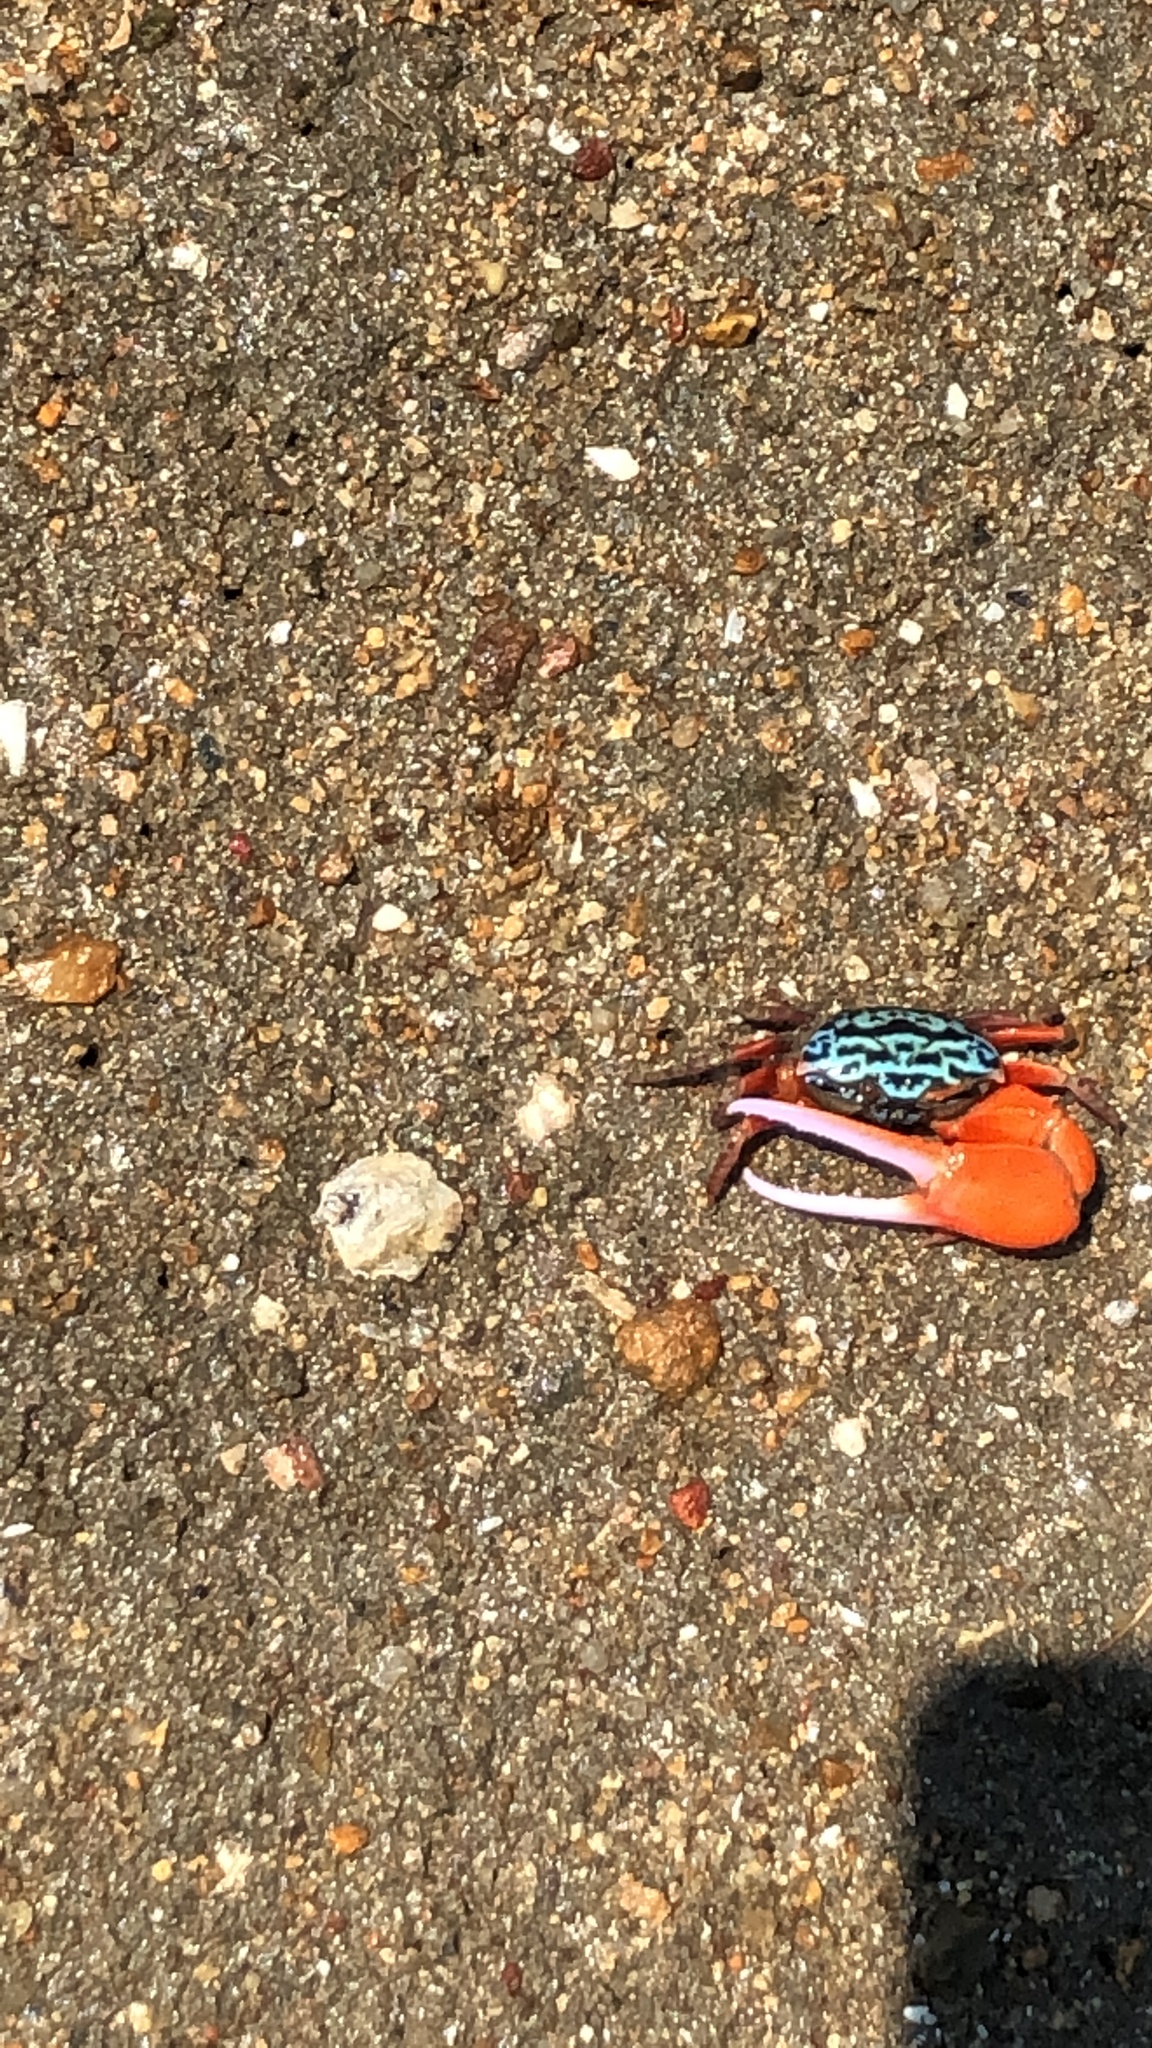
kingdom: Animalia
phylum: Arthropoda
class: Malacostraca
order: Decapoda
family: Ocypodidae
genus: Paraleptuca
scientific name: Paraleptuca splendida
